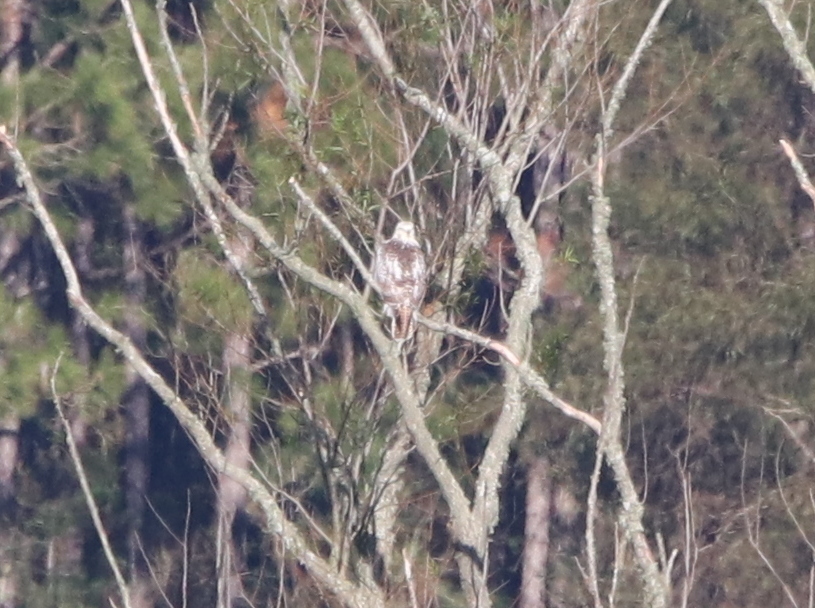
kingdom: Animalia
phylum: Chordata
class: Aves
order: Accipitriformes
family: Accipitridae
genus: Buteo
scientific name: Buteo jamaicensis
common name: Red-tailed hawk
